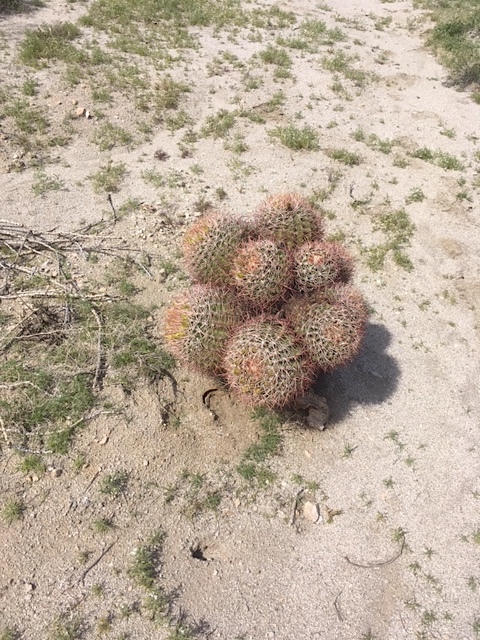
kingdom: Plantae
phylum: Tracheophyta
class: Magnoliopsida
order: Caryophyllales
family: Cactaceae
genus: Ferocactus
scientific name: Ferocactus cylindraceus
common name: California barrel cactus
